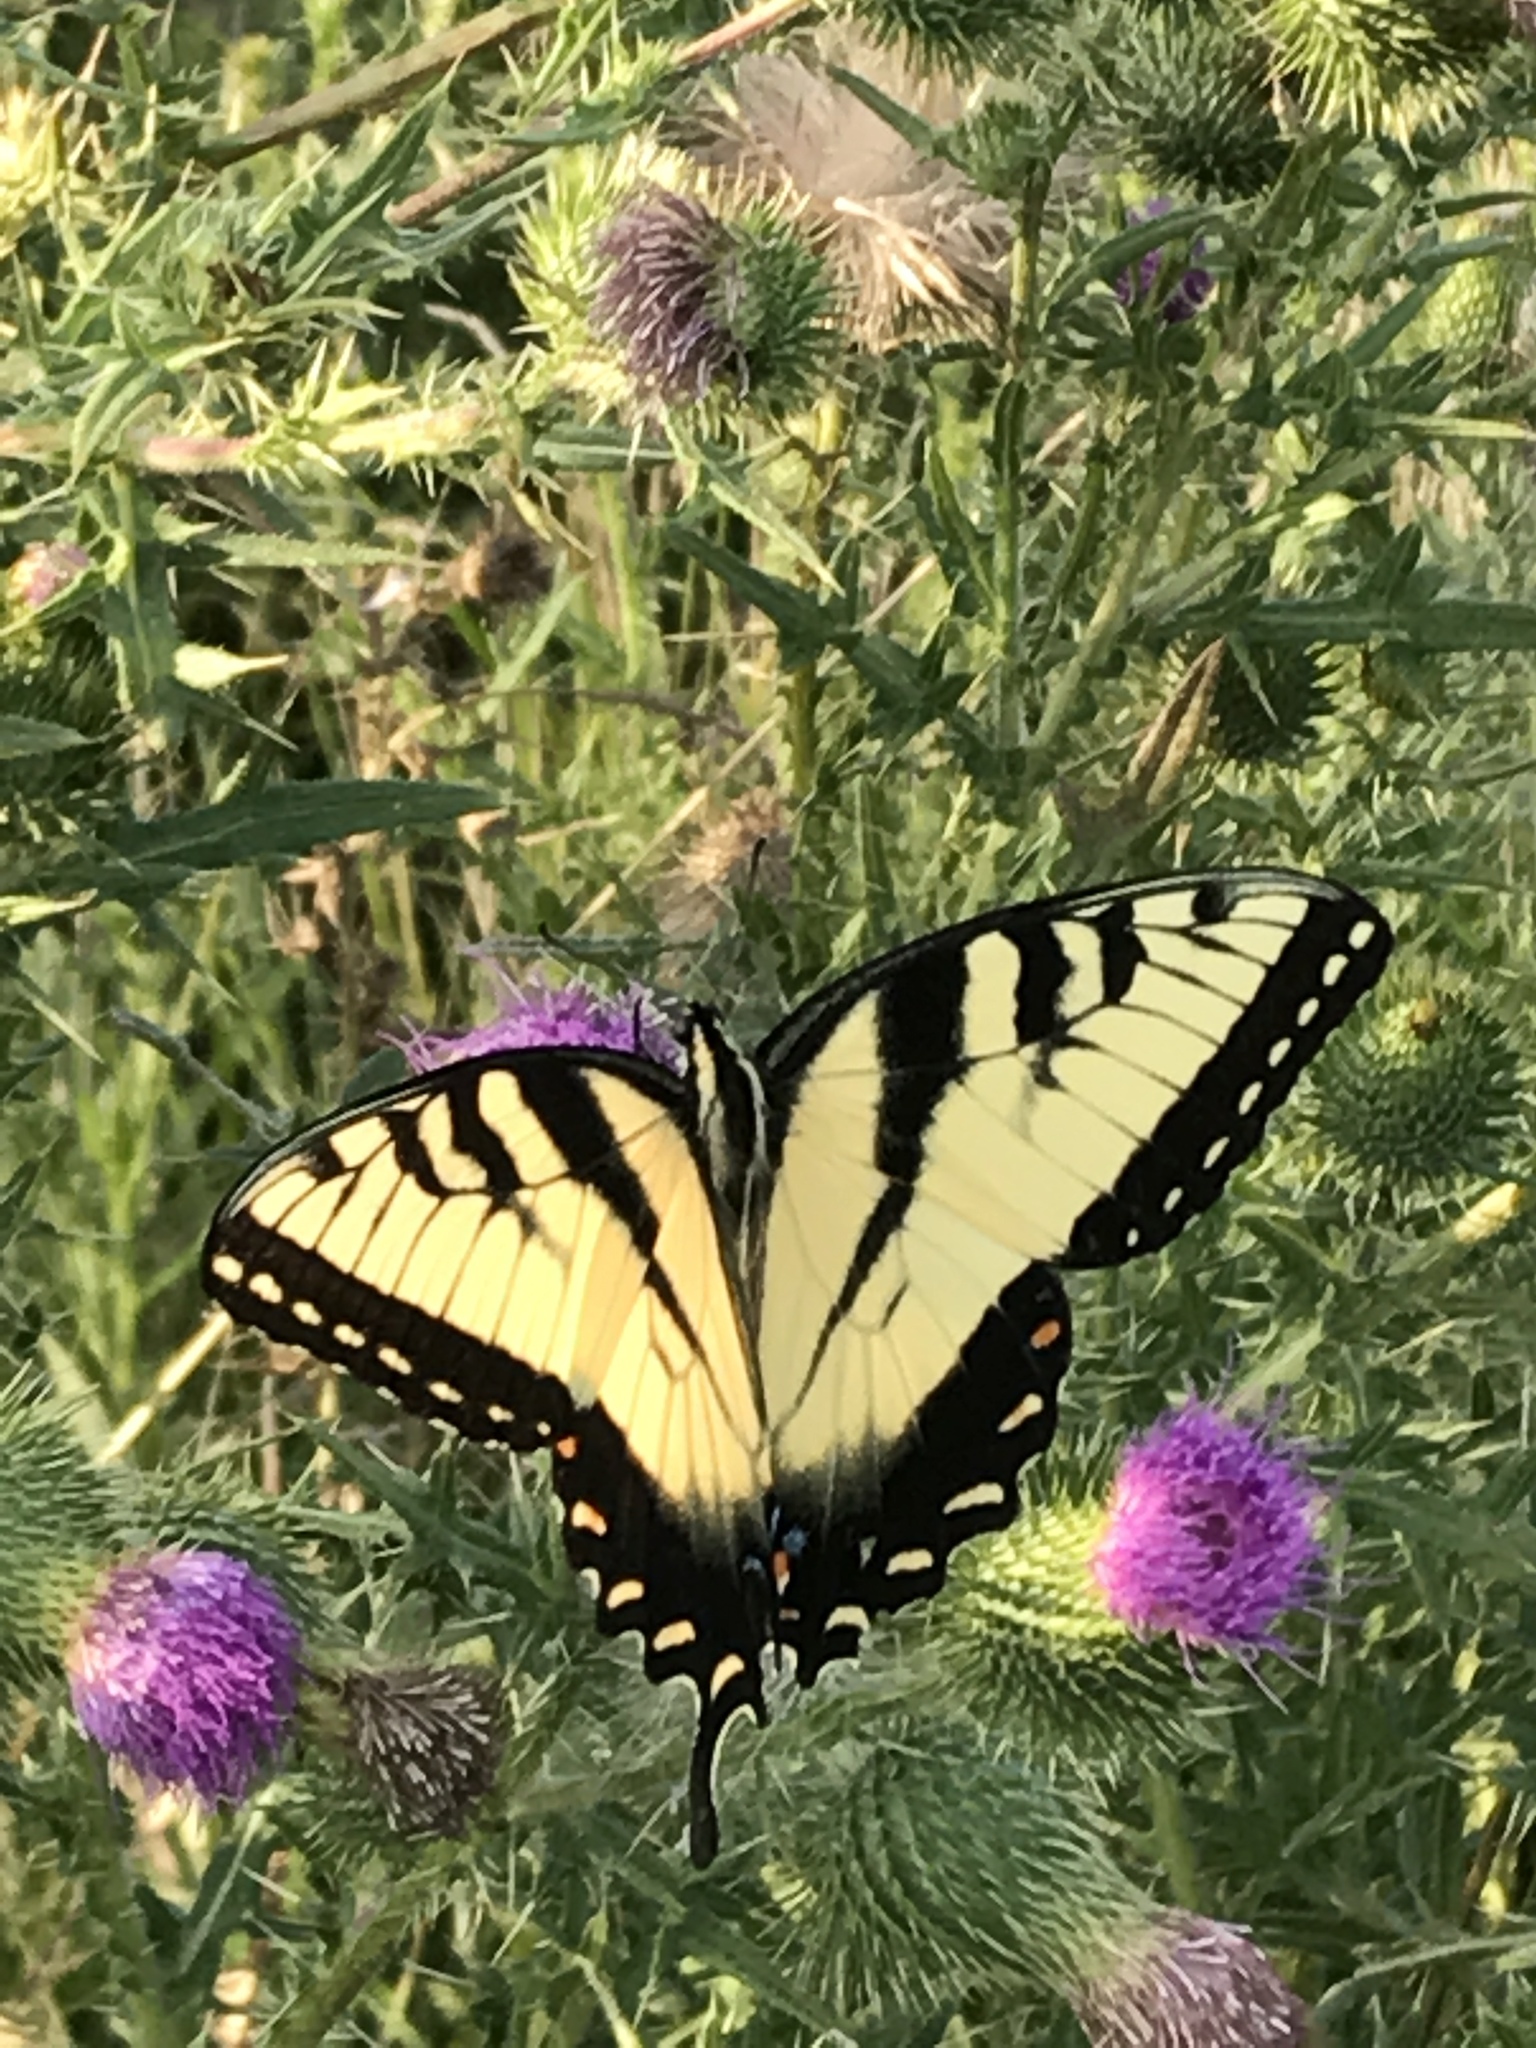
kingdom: Animalia
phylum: Arthropoda
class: Insecta
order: Lepidoptera
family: Papilionidae
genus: Papilio
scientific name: Papilio glaucus
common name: Tiger swallowtail
